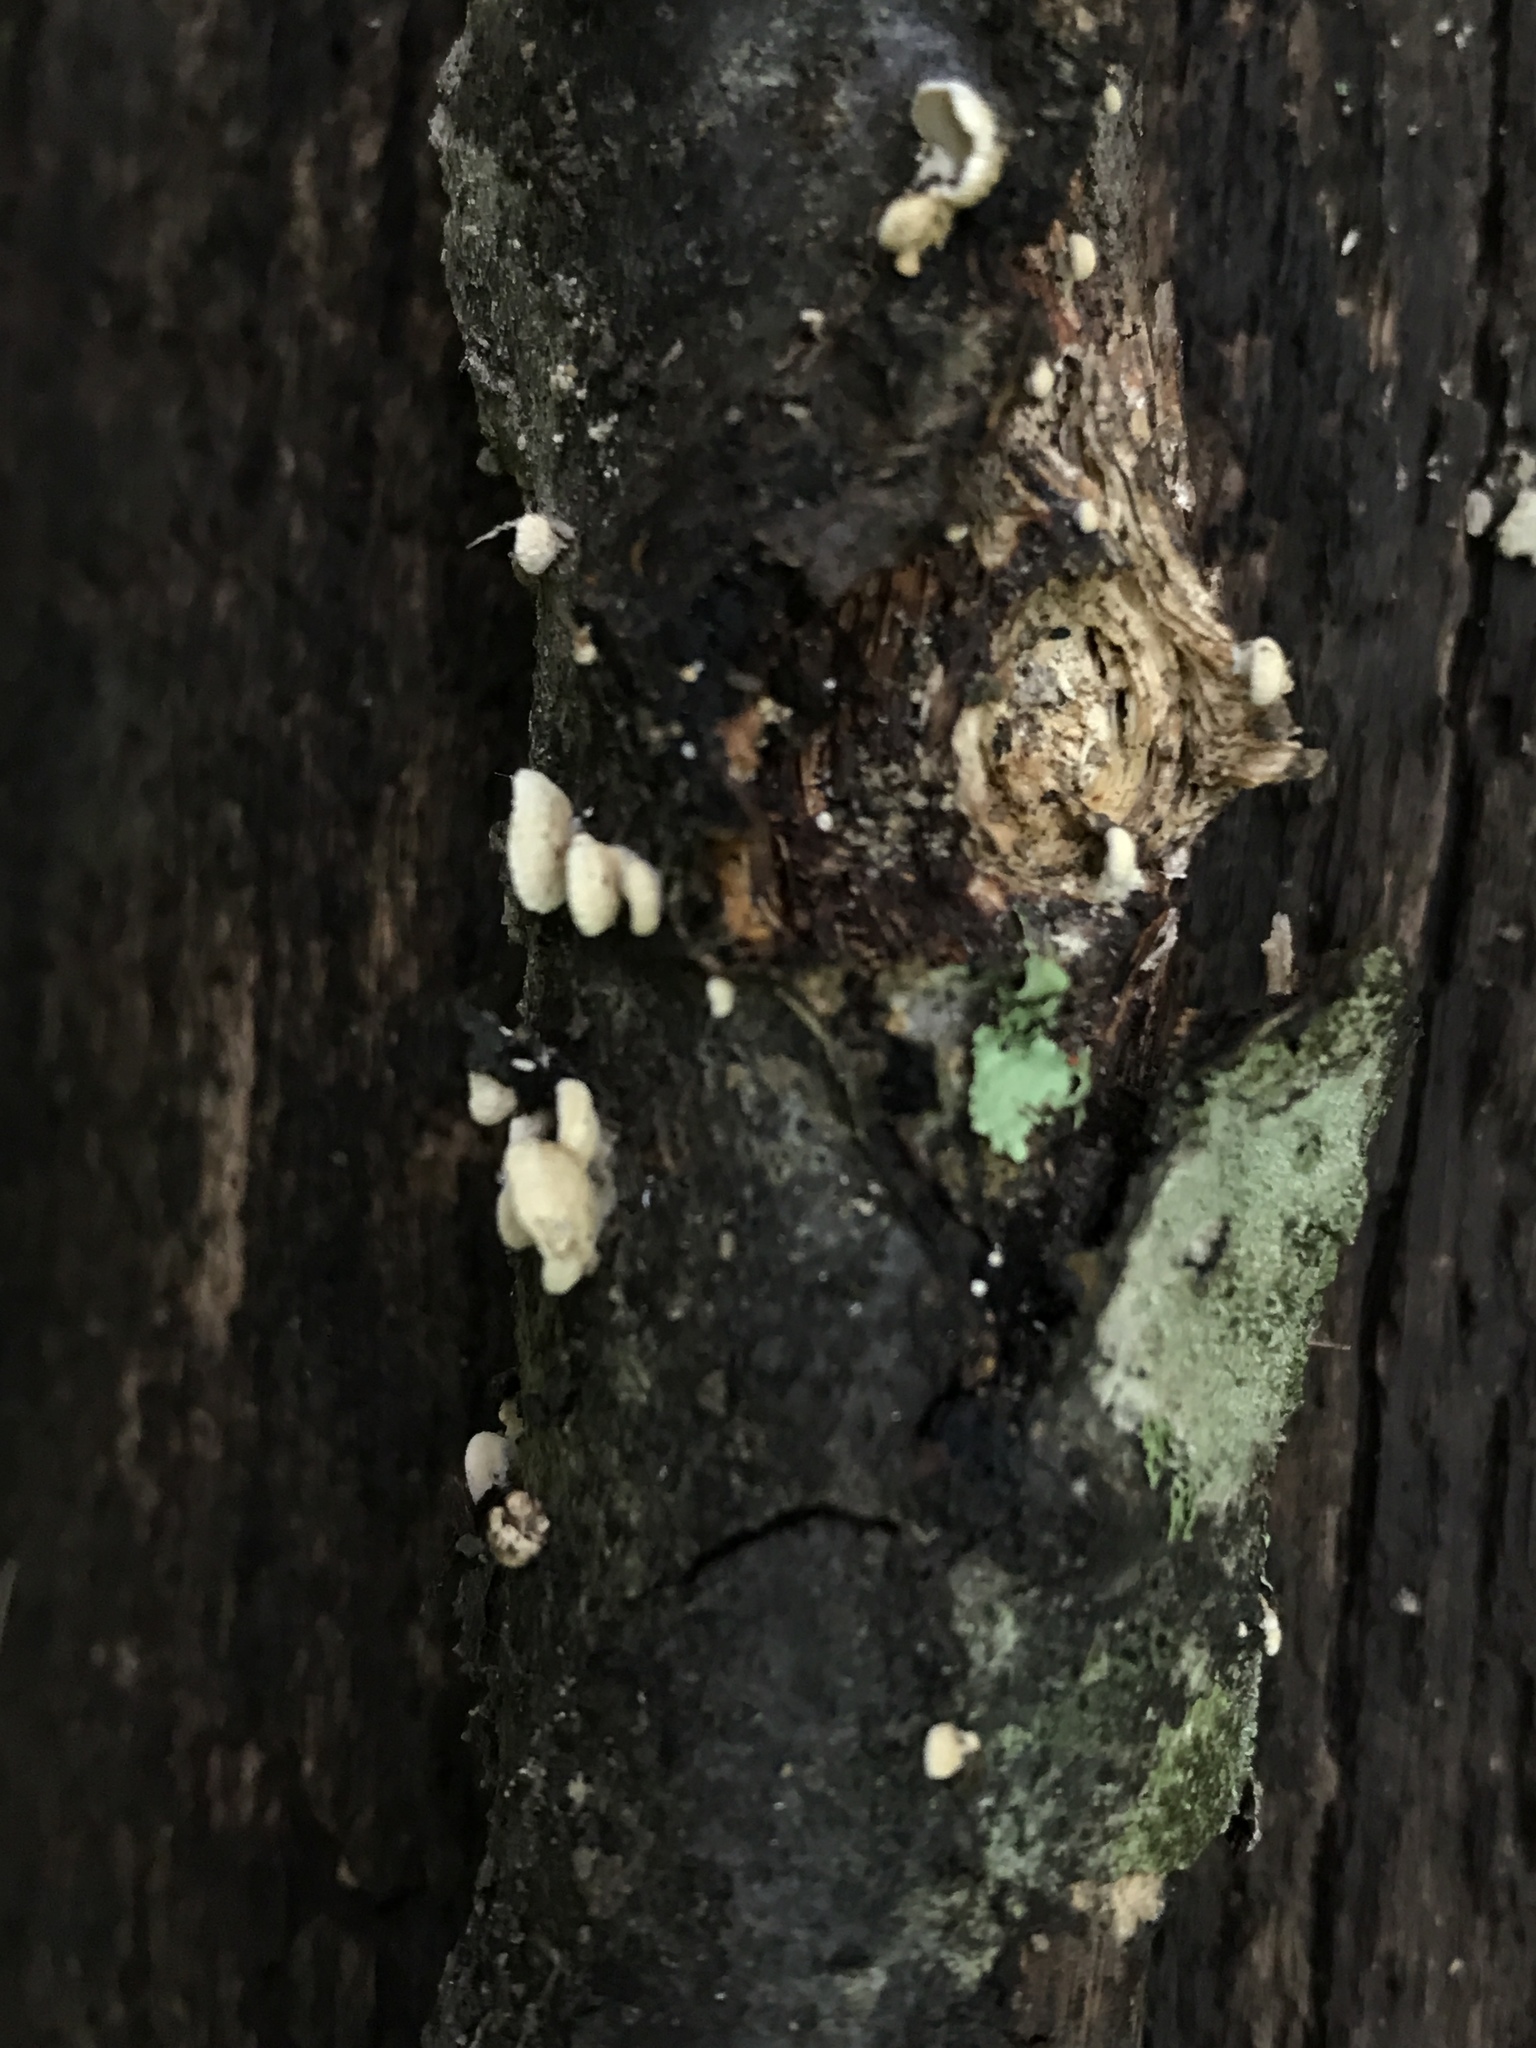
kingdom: Fungi
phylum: Basidiomycota
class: Agaricomycetes
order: Agaricales
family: Mycenaceae
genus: Panellus
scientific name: Panellus stipticus
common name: Bitter oysterling
